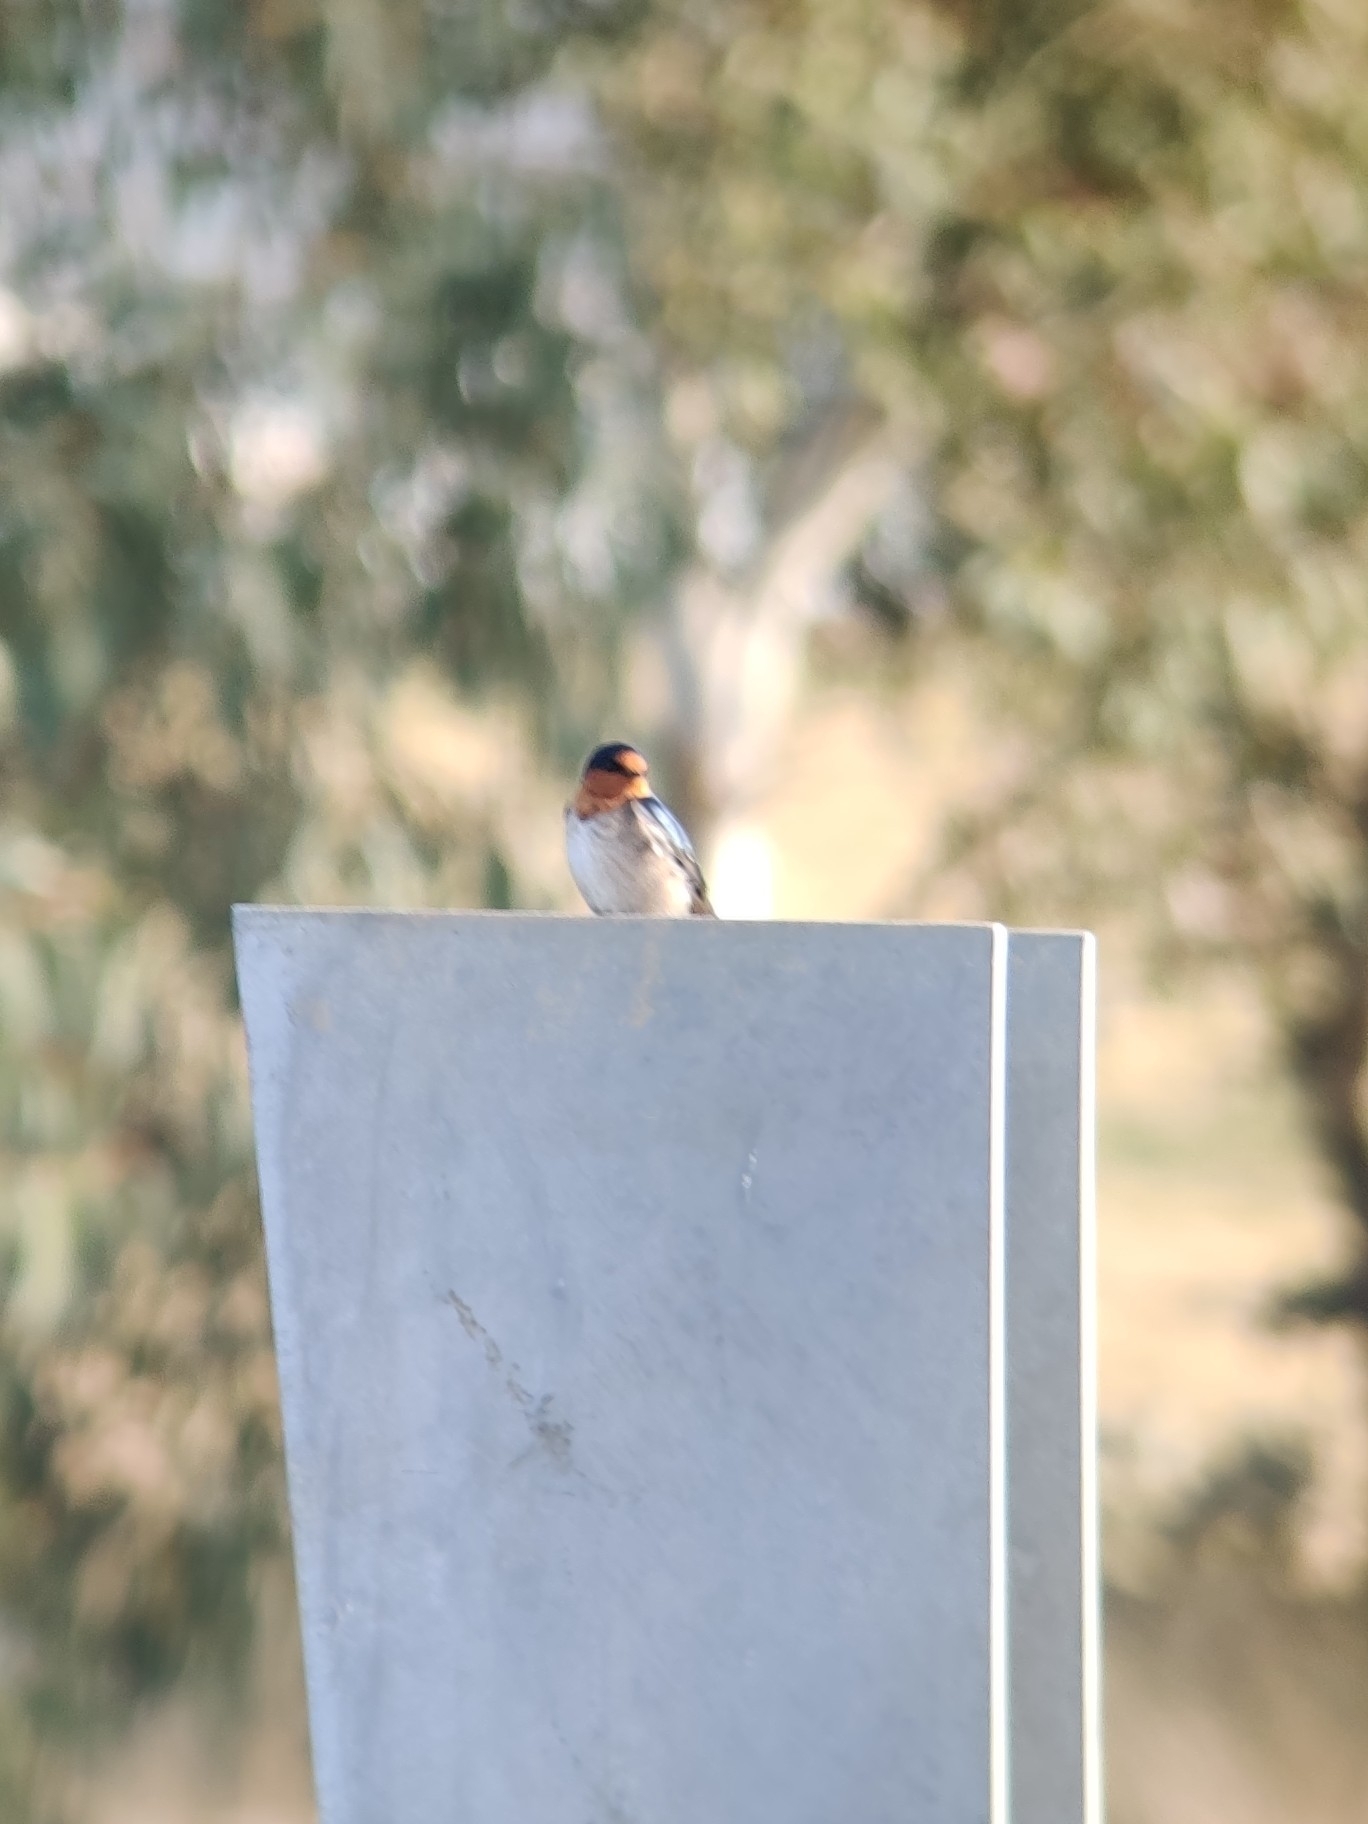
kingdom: Animalia
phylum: Chordata
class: Aves
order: Passeriformes
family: Hirundinidae
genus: Hirundo
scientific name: Hirundo neoxena
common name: Welcome swallow
